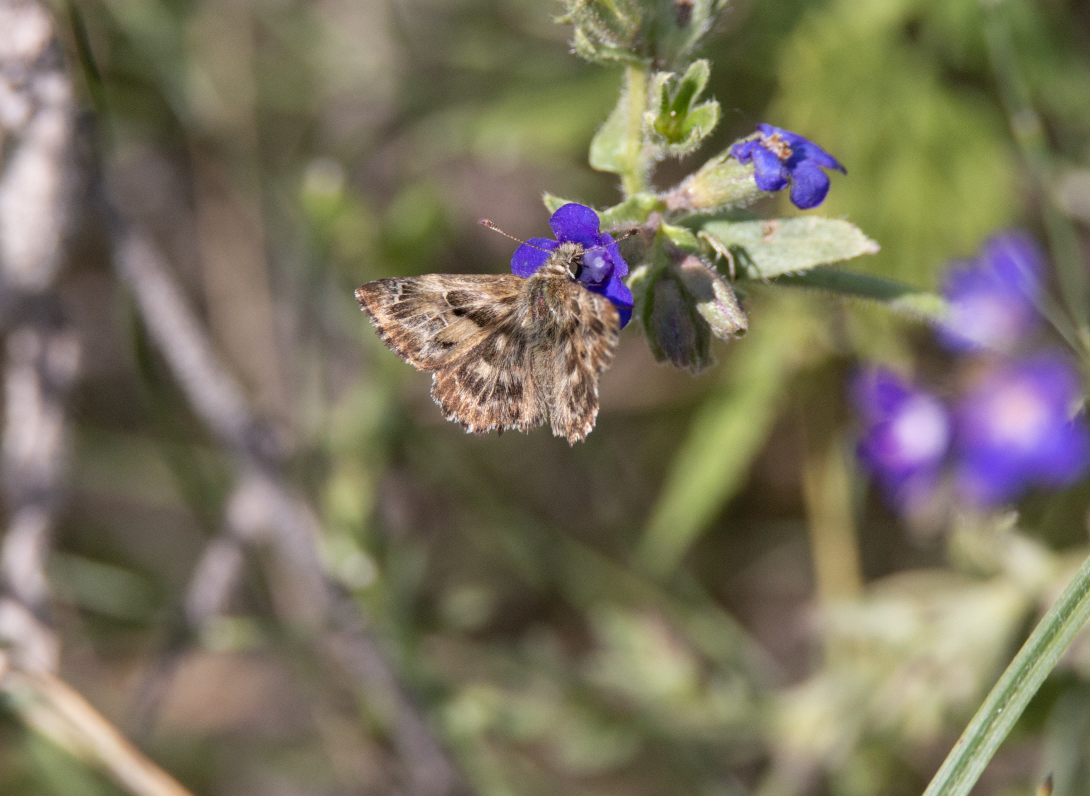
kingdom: Animalia
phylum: Arthropoda
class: Insecta
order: Lepidoptera
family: Hesperiidae
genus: Carcharodus
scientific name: Carcharodus alceae
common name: Mallow skipper
